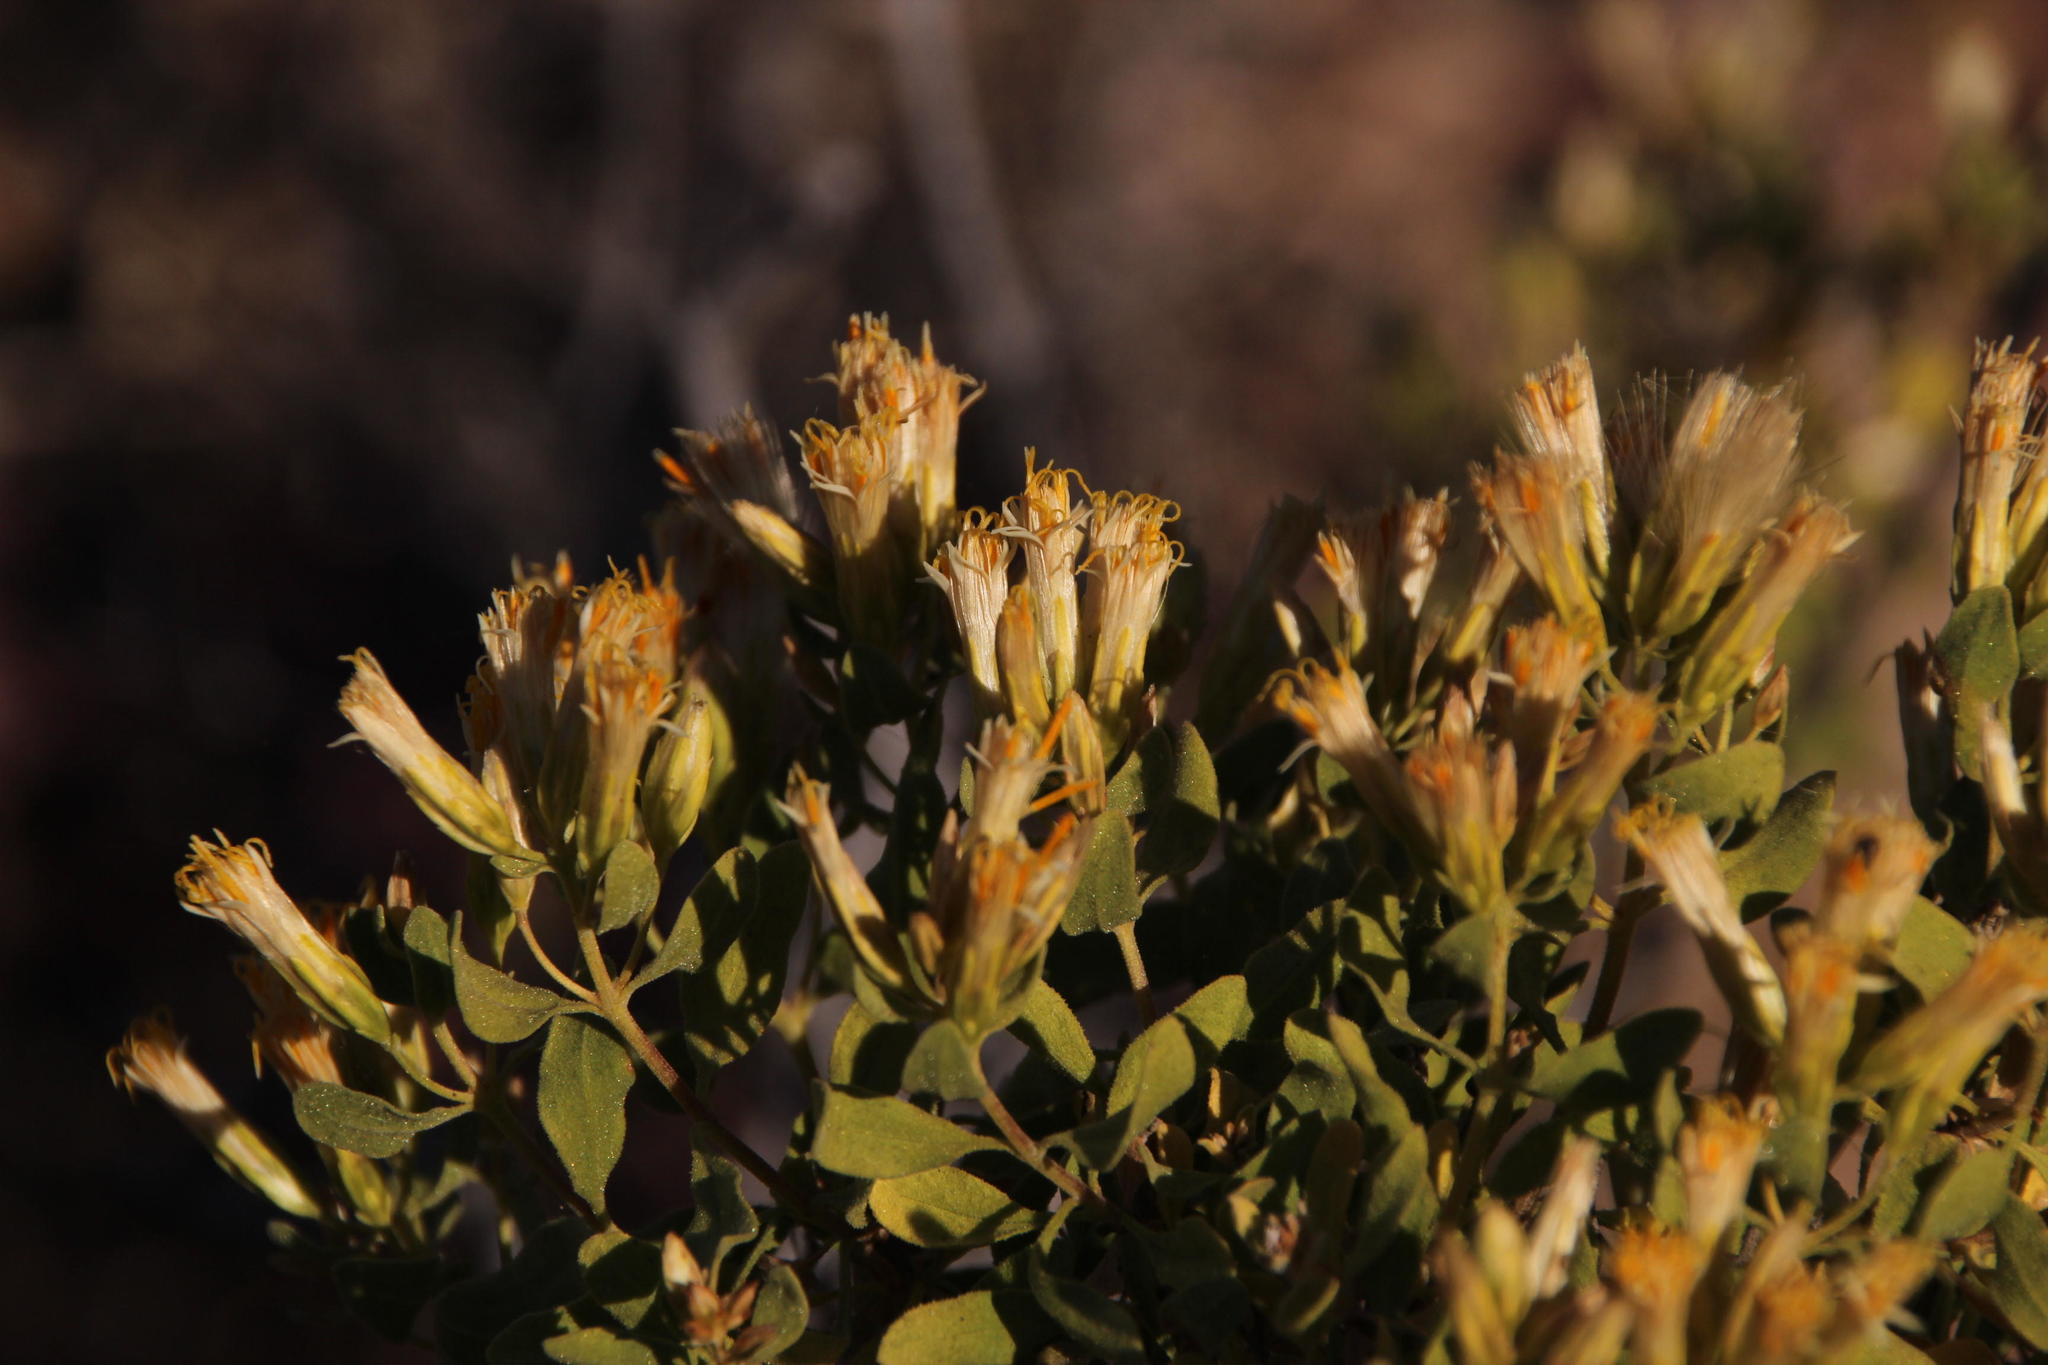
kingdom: Plantae
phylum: Tracheophyta
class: Magnoliopsida
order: Asterales
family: Asteraceae
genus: Pteronia
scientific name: Pteronia divaricata
